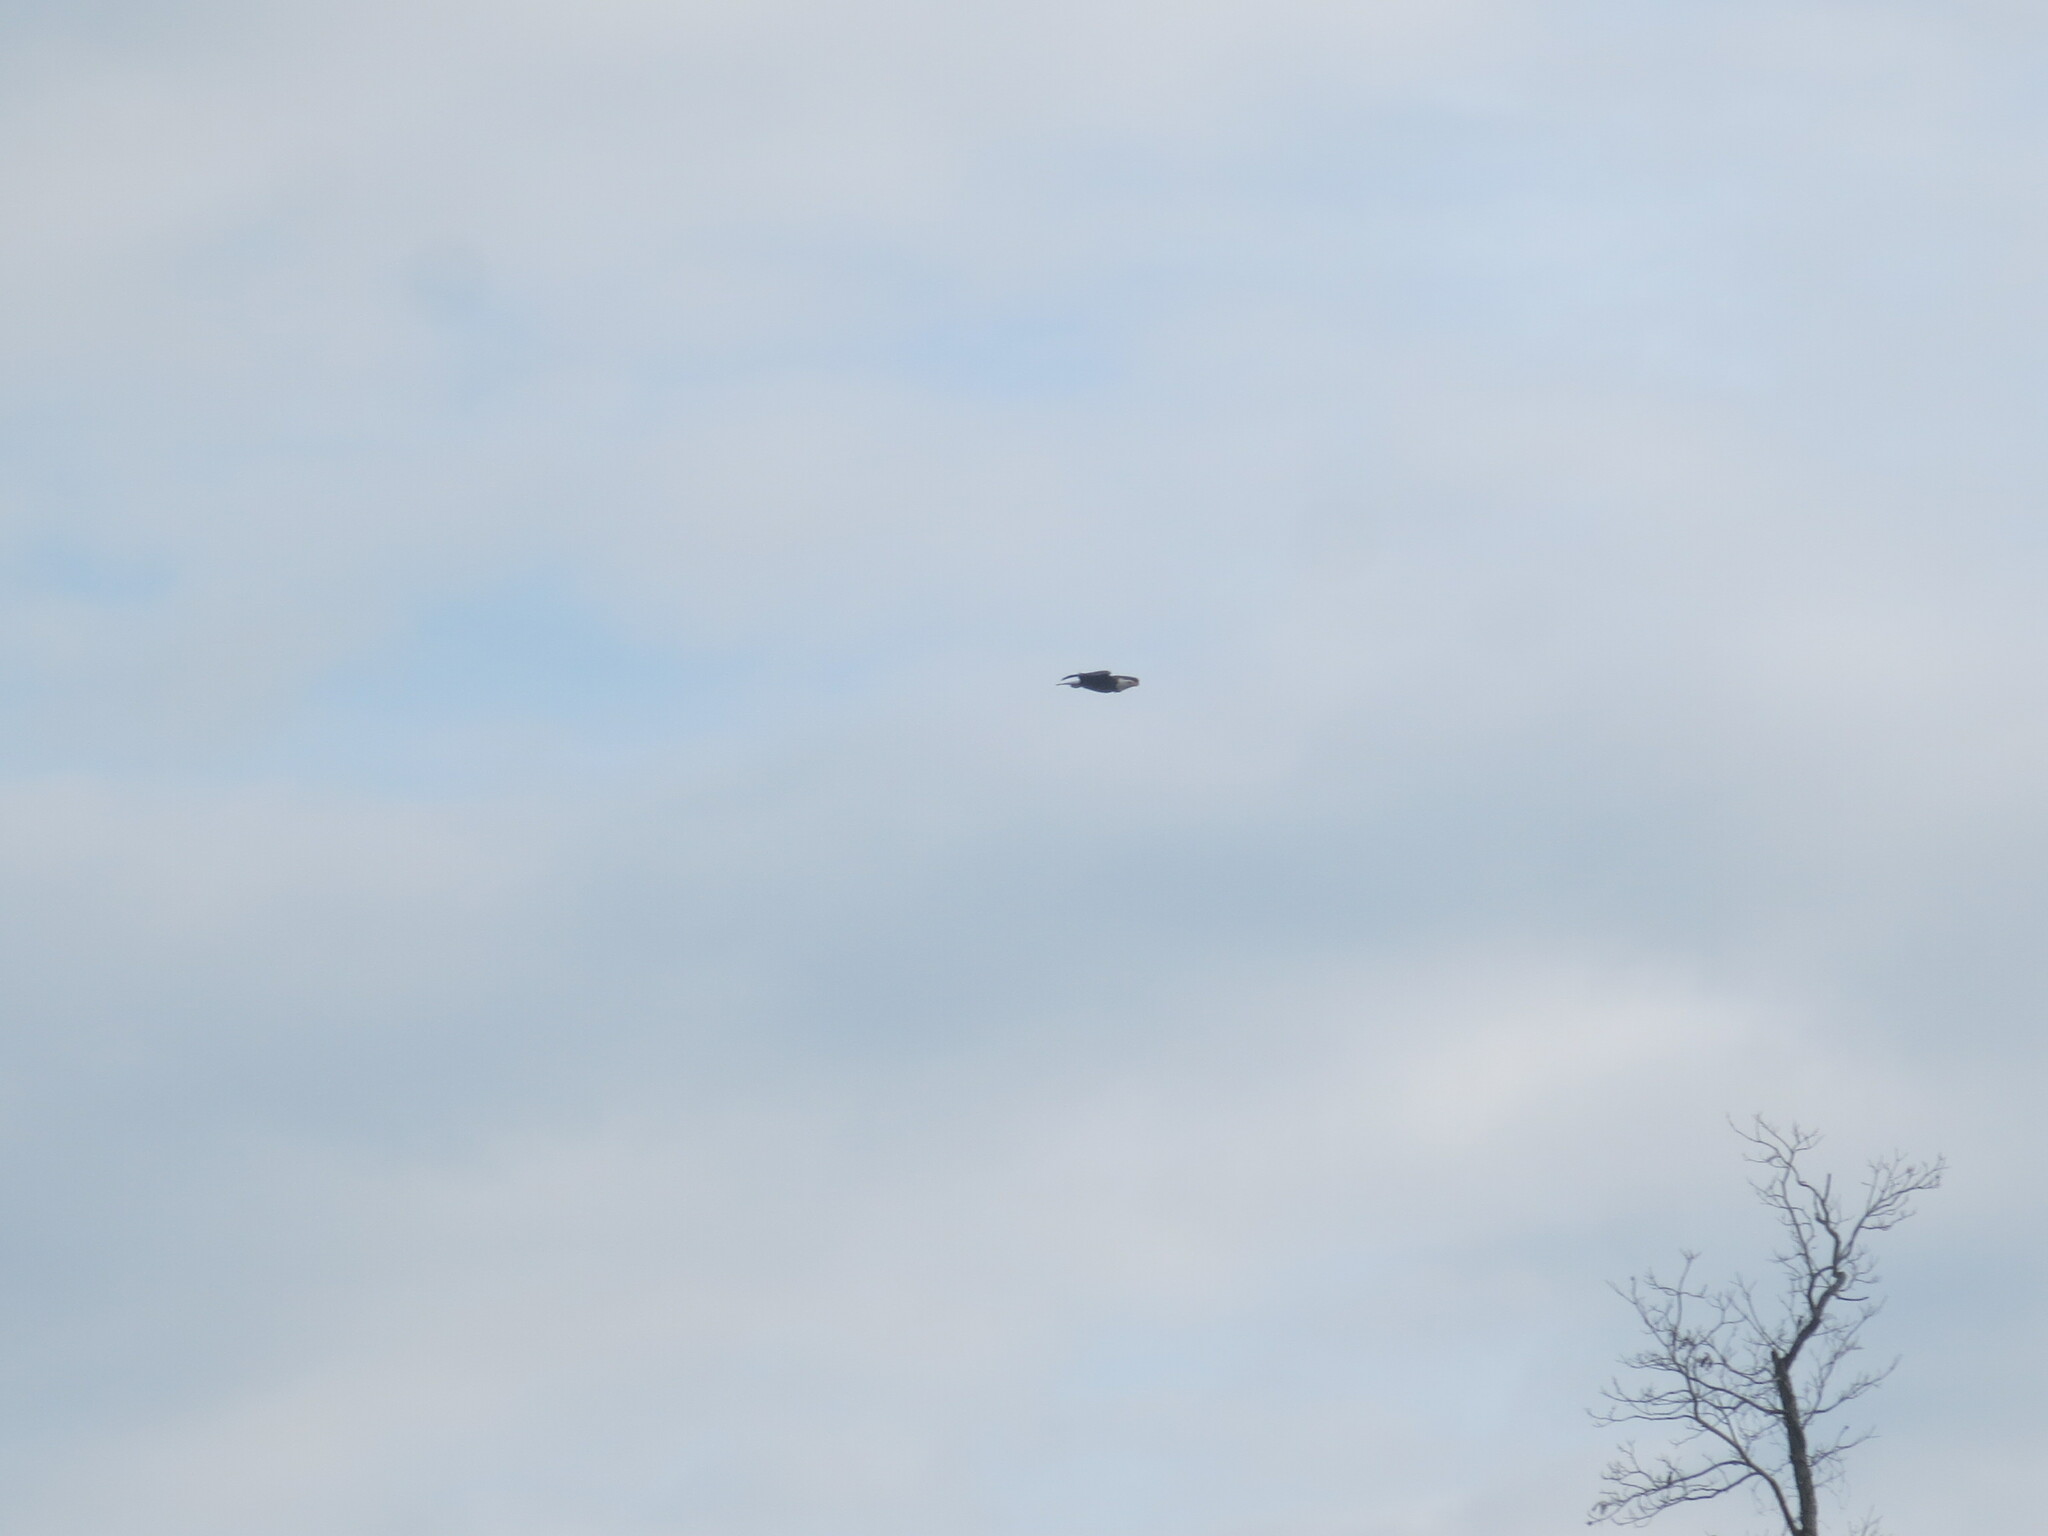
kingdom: Animalia
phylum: Chordata
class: Aves
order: Accipitriformes
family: Accipitridae
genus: Haliaeetus
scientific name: Haliaeetus leucocephalus
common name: Bald eagle
